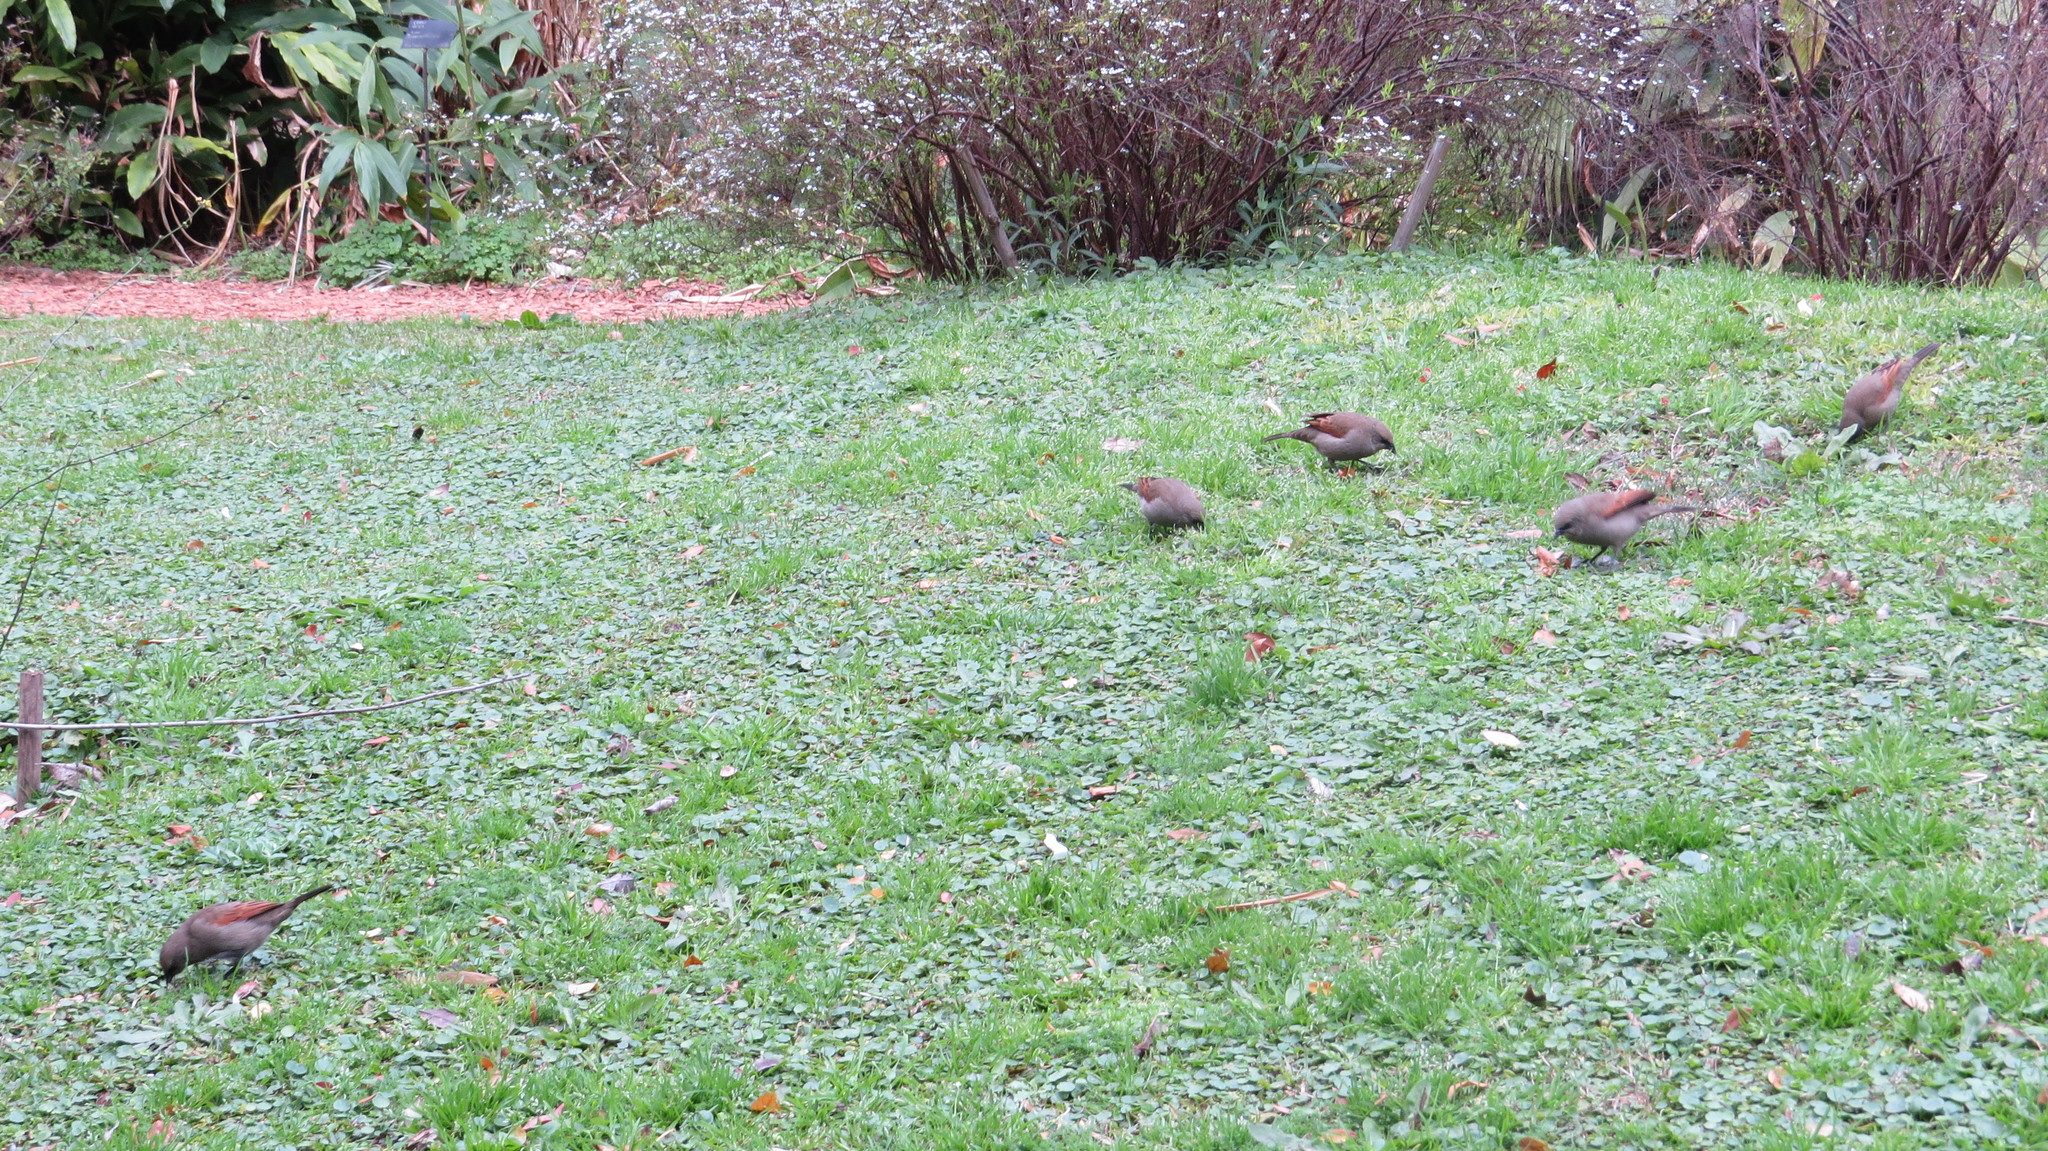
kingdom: Animalia
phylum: Chordata
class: Aves
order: Passeriformes
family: Icteridae
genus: Agelaioides
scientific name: Agelaioides badius
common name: Baywing
